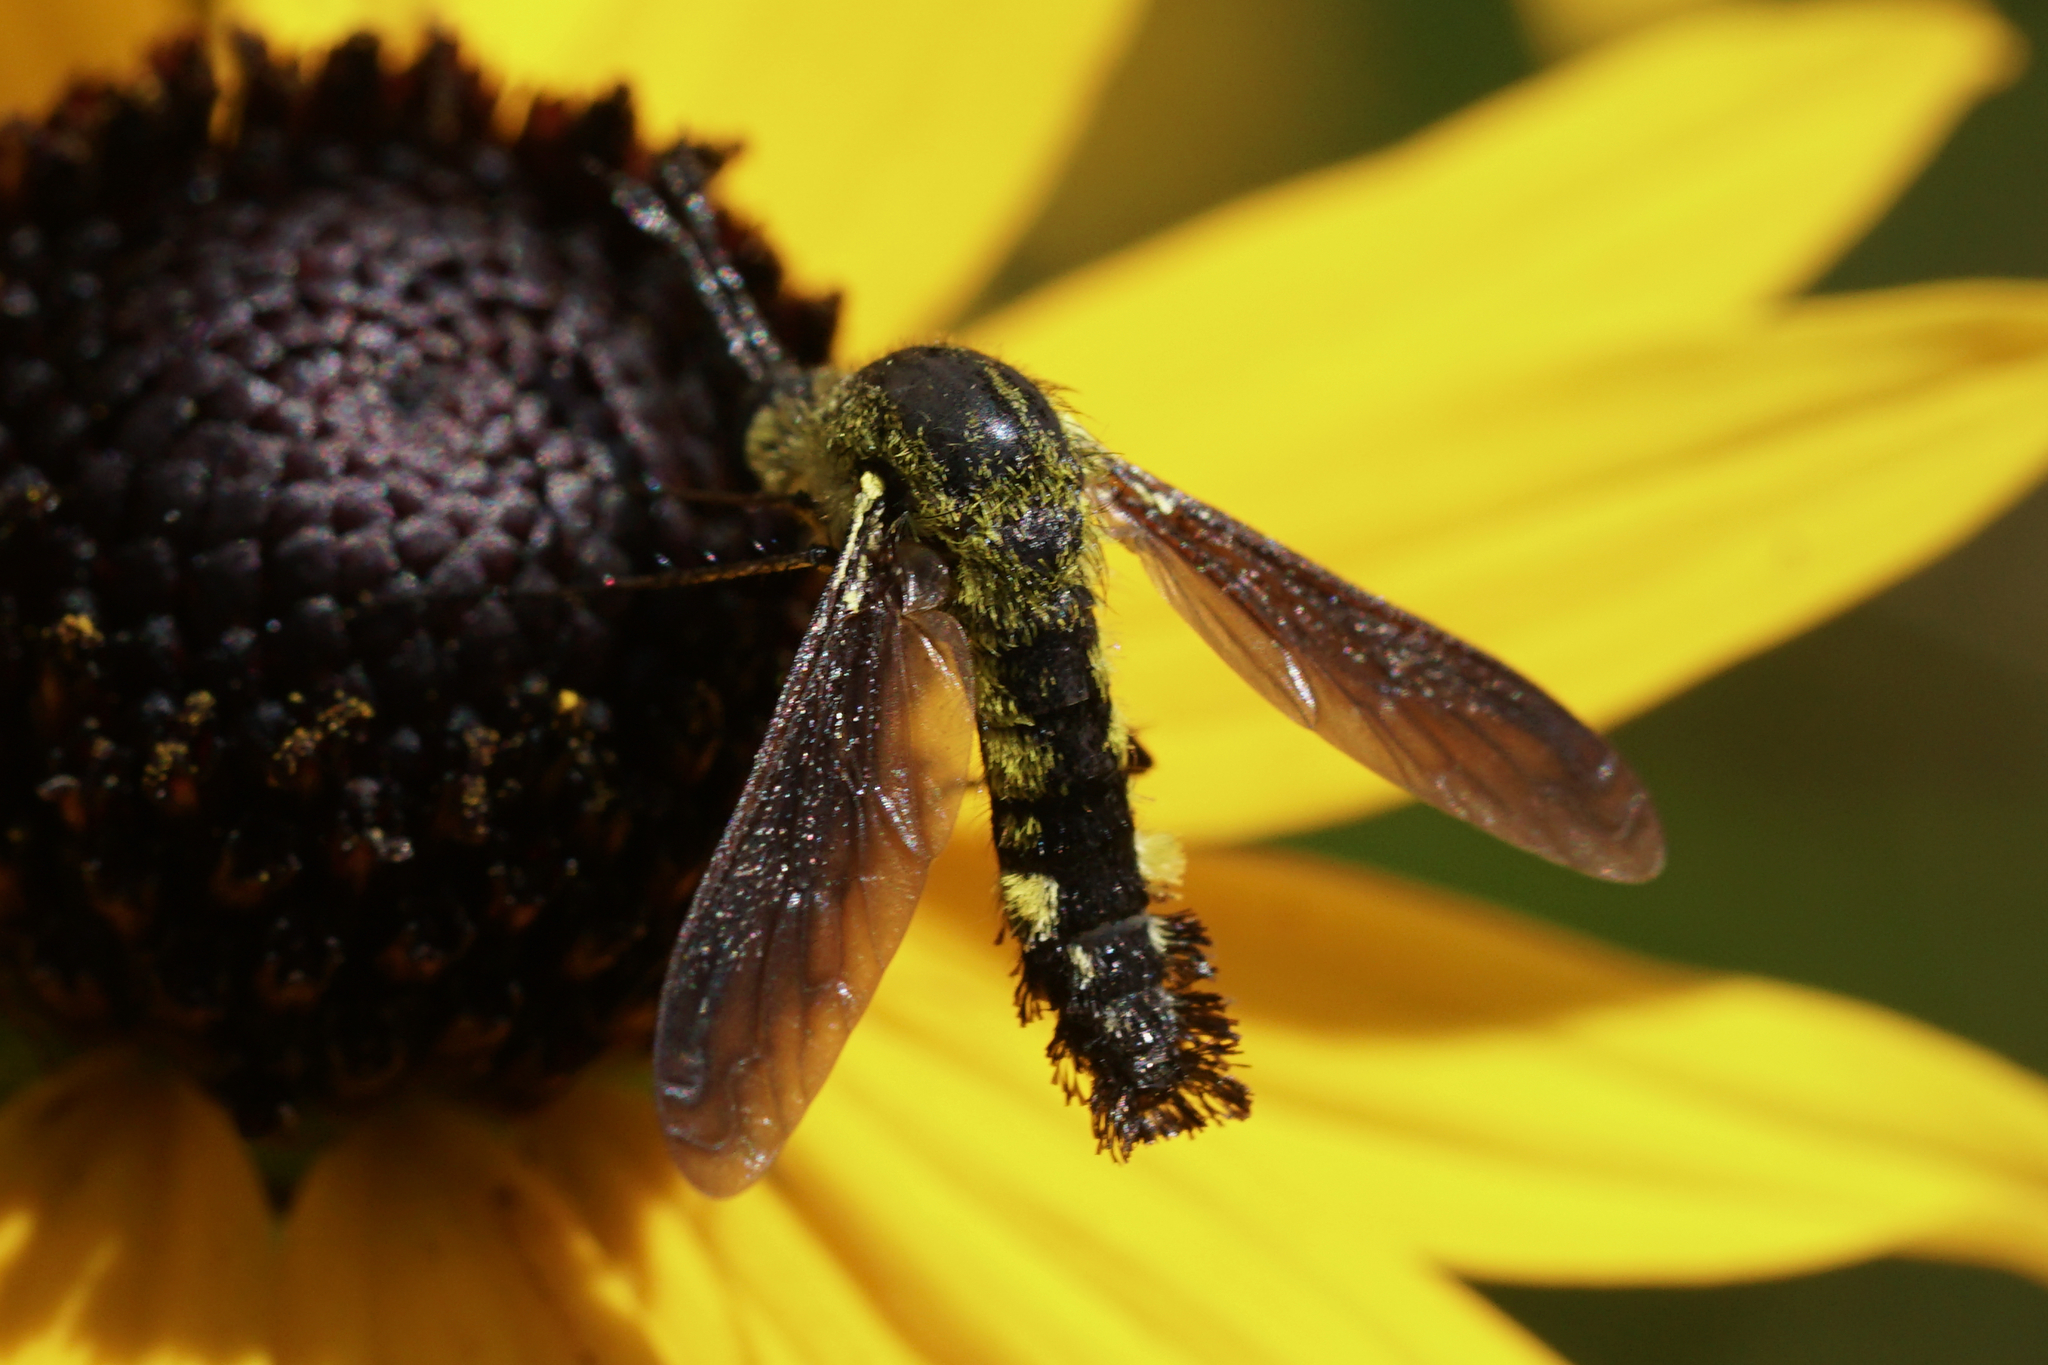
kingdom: Animalia
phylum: Arthropoda
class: Insecta
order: Diptera
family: Bombyliidae
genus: Lepidophora
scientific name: Lepidophora lutea
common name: Hunchback bee fly
